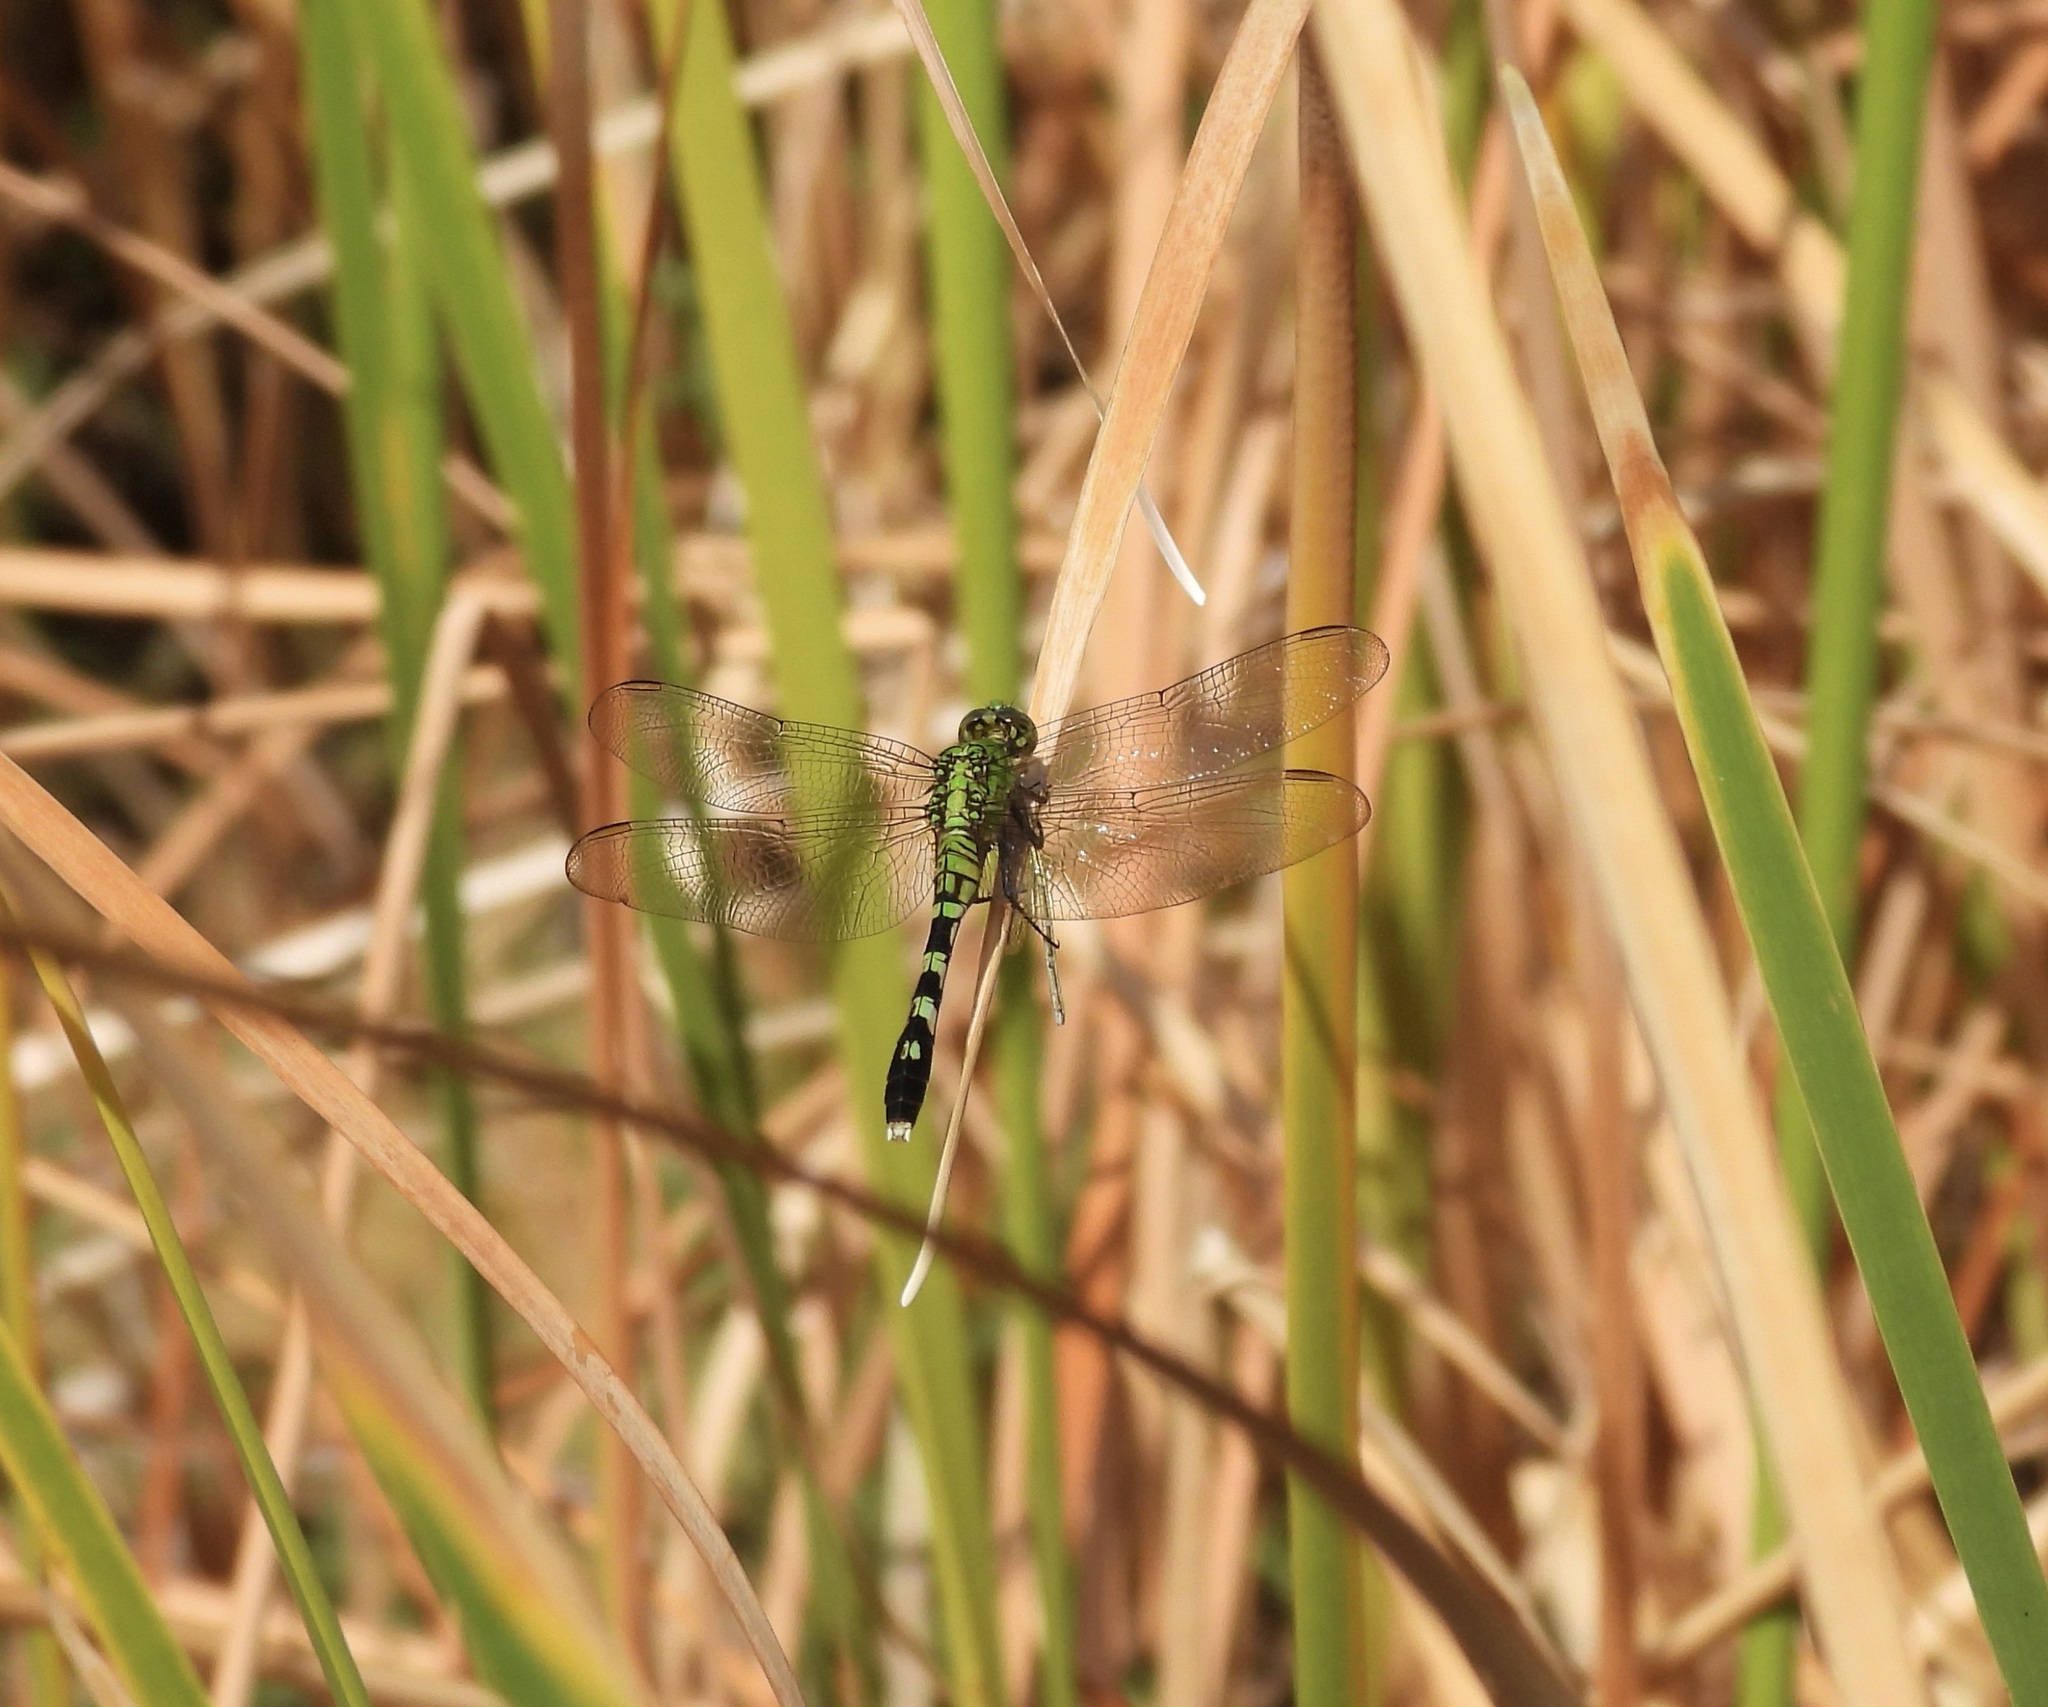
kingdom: Animalia
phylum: Arthropoda
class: Insecta
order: Odonata
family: Libellulidae
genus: Erythemis
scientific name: Erythemis simplicicollis
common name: Eastern pondhawk
